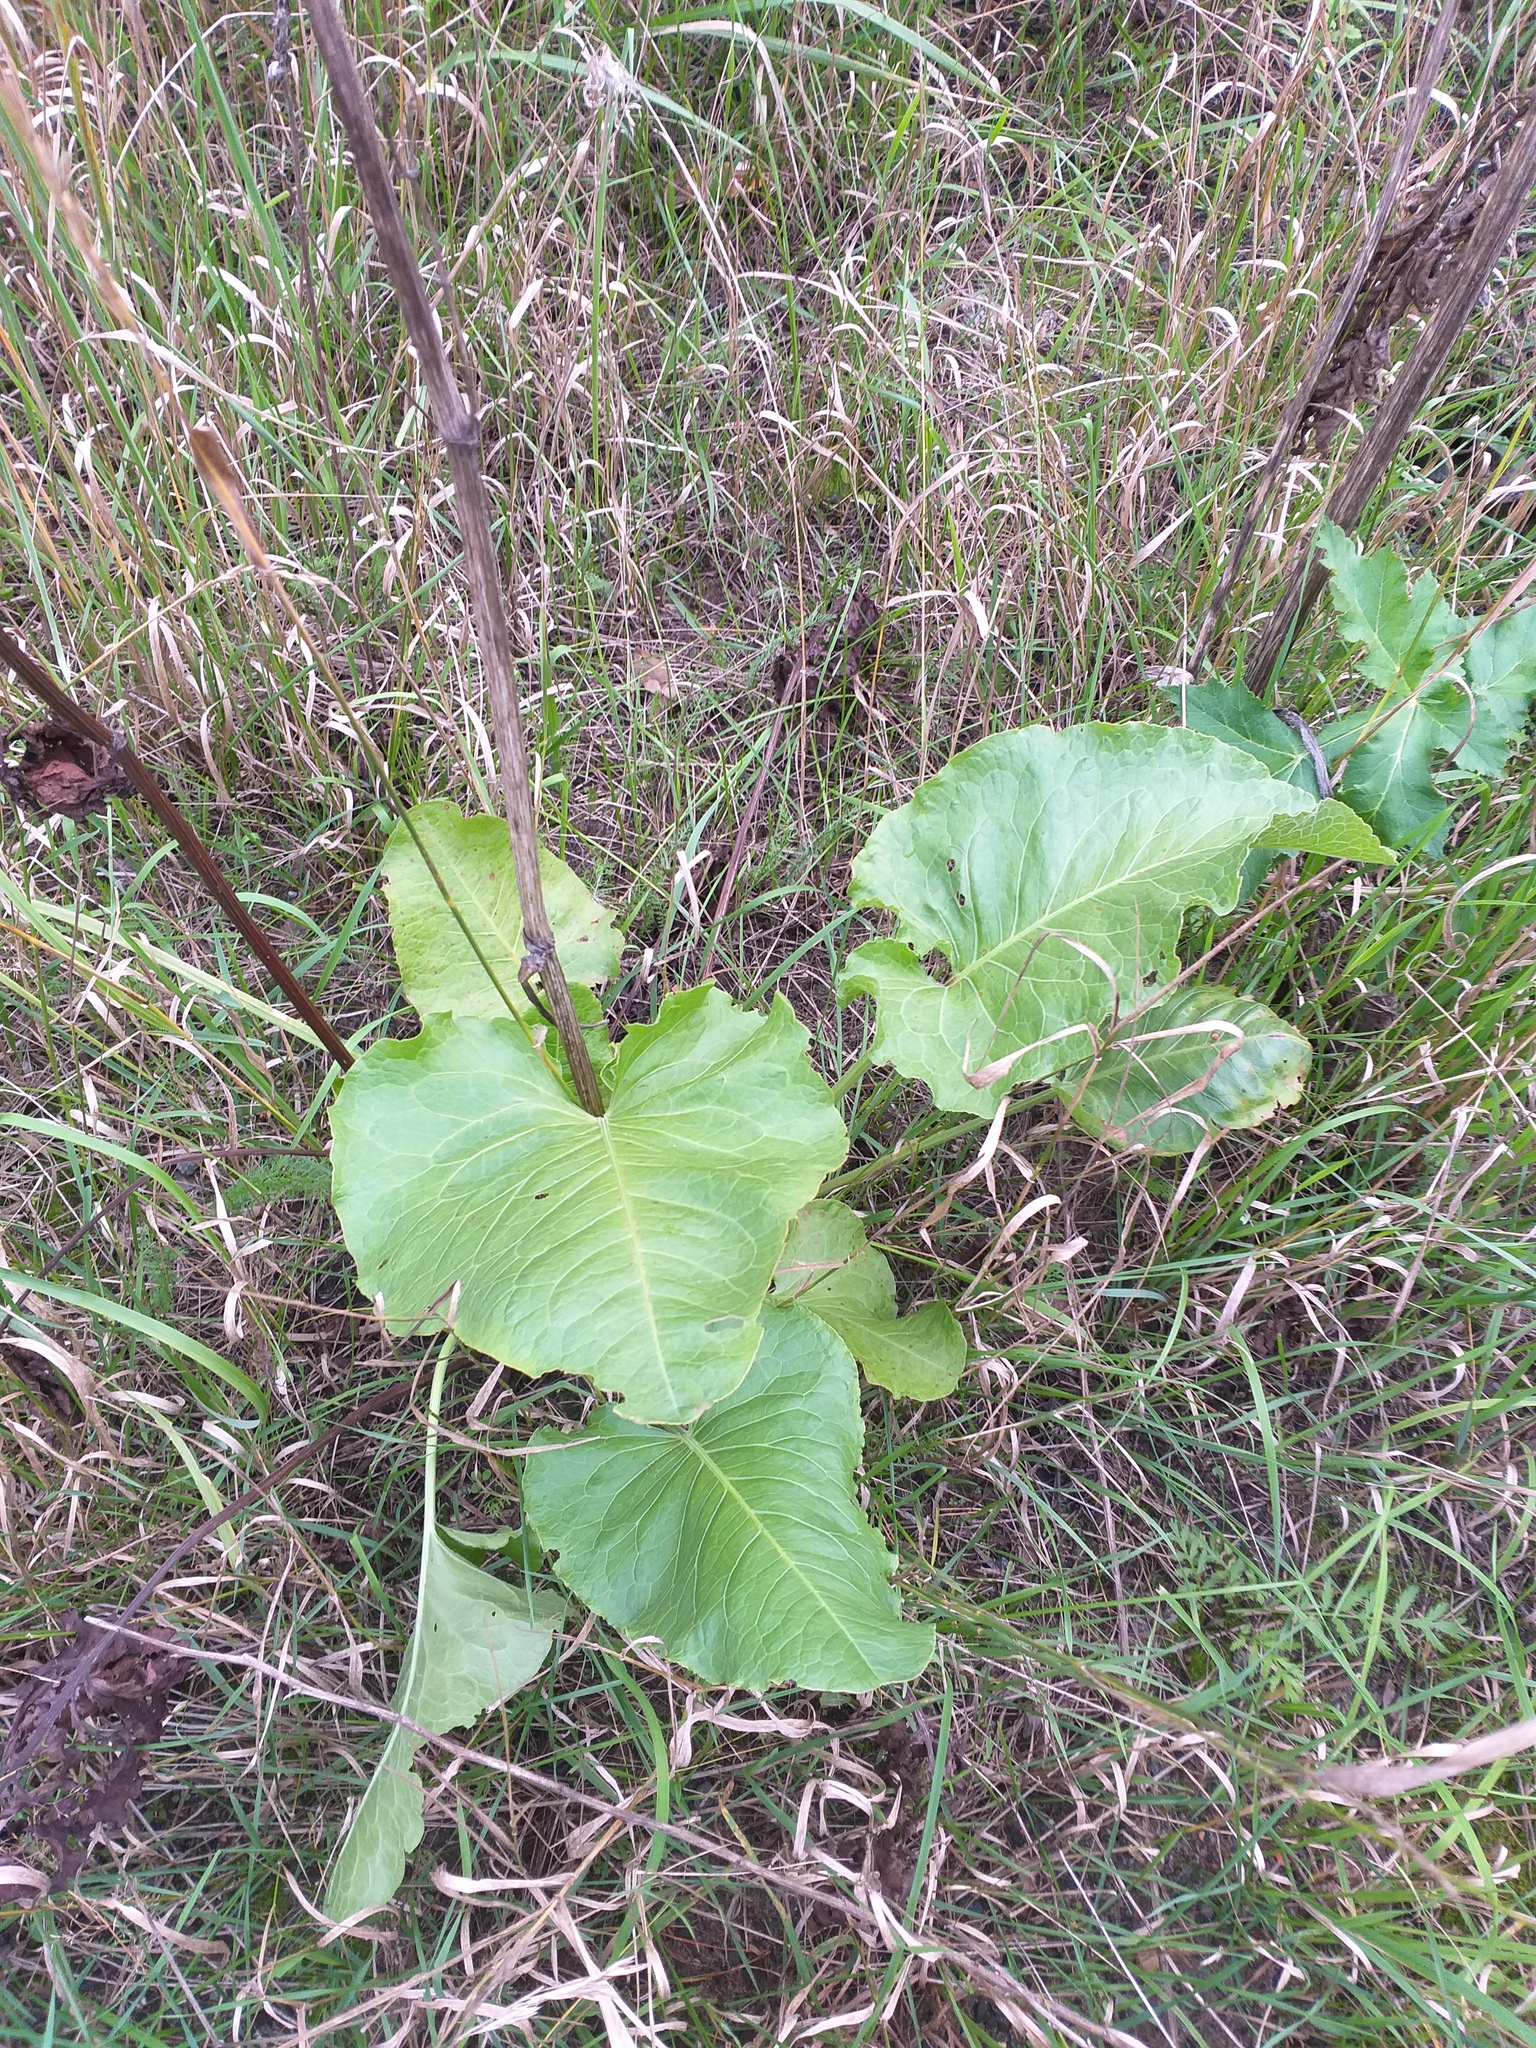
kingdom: Plantae
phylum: Tracheophyta
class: Magnoliopsida
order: Caryophyllales
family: Polygonaceae
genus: Rumex
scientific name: Rumex confertus
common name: Russian dock
